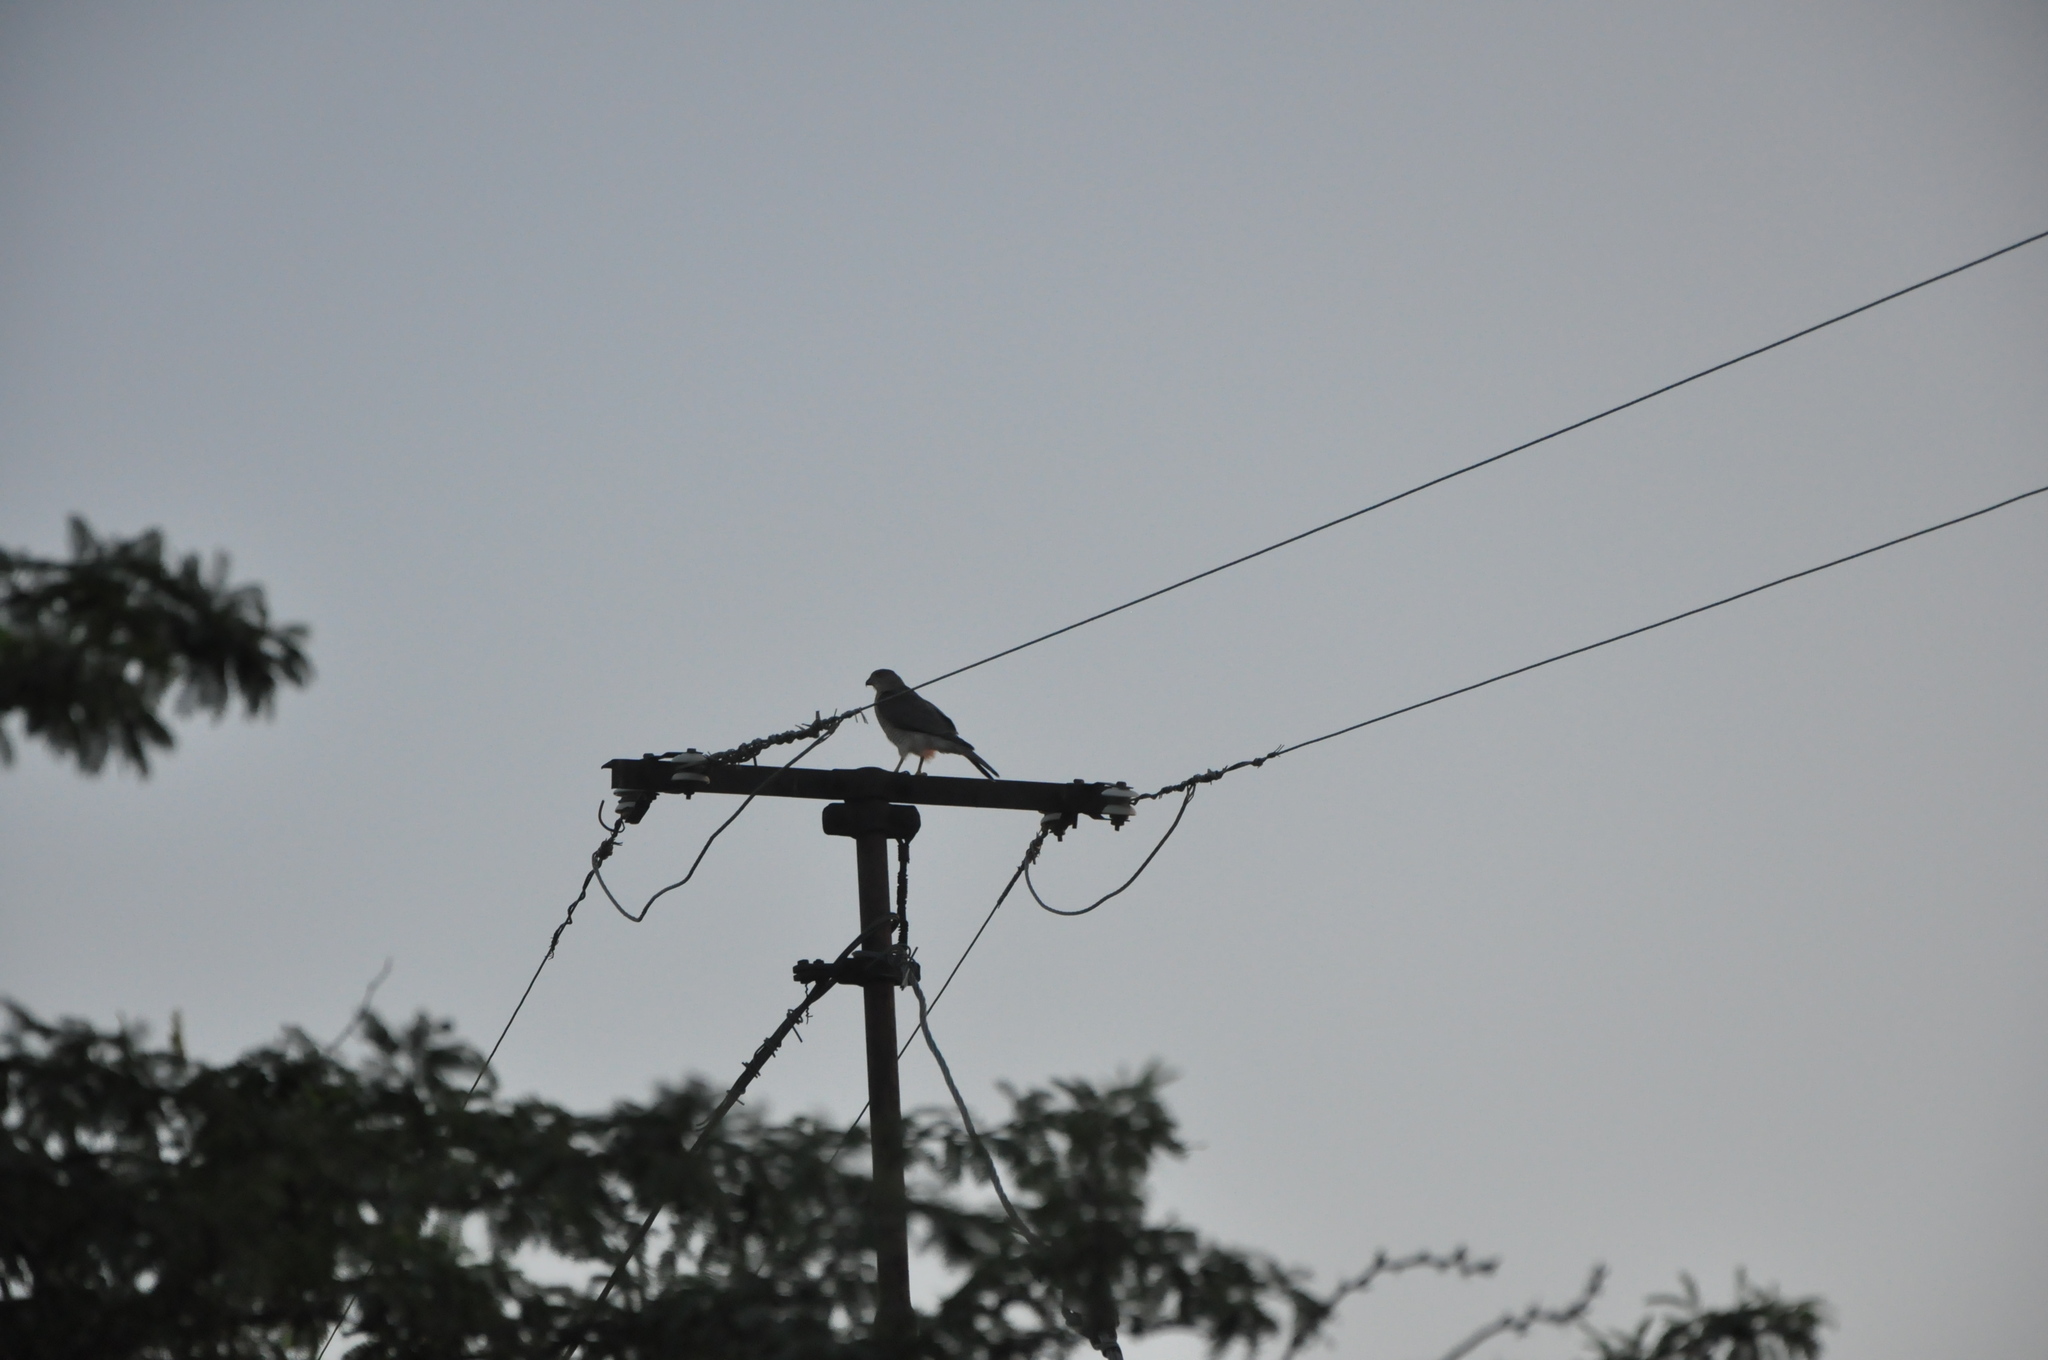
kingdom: Animalia
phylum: Chordata
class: Aves
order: Accipitriformes
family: Accipitridae
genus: Accipiter
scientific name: Accipiter badius
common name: Shikra
